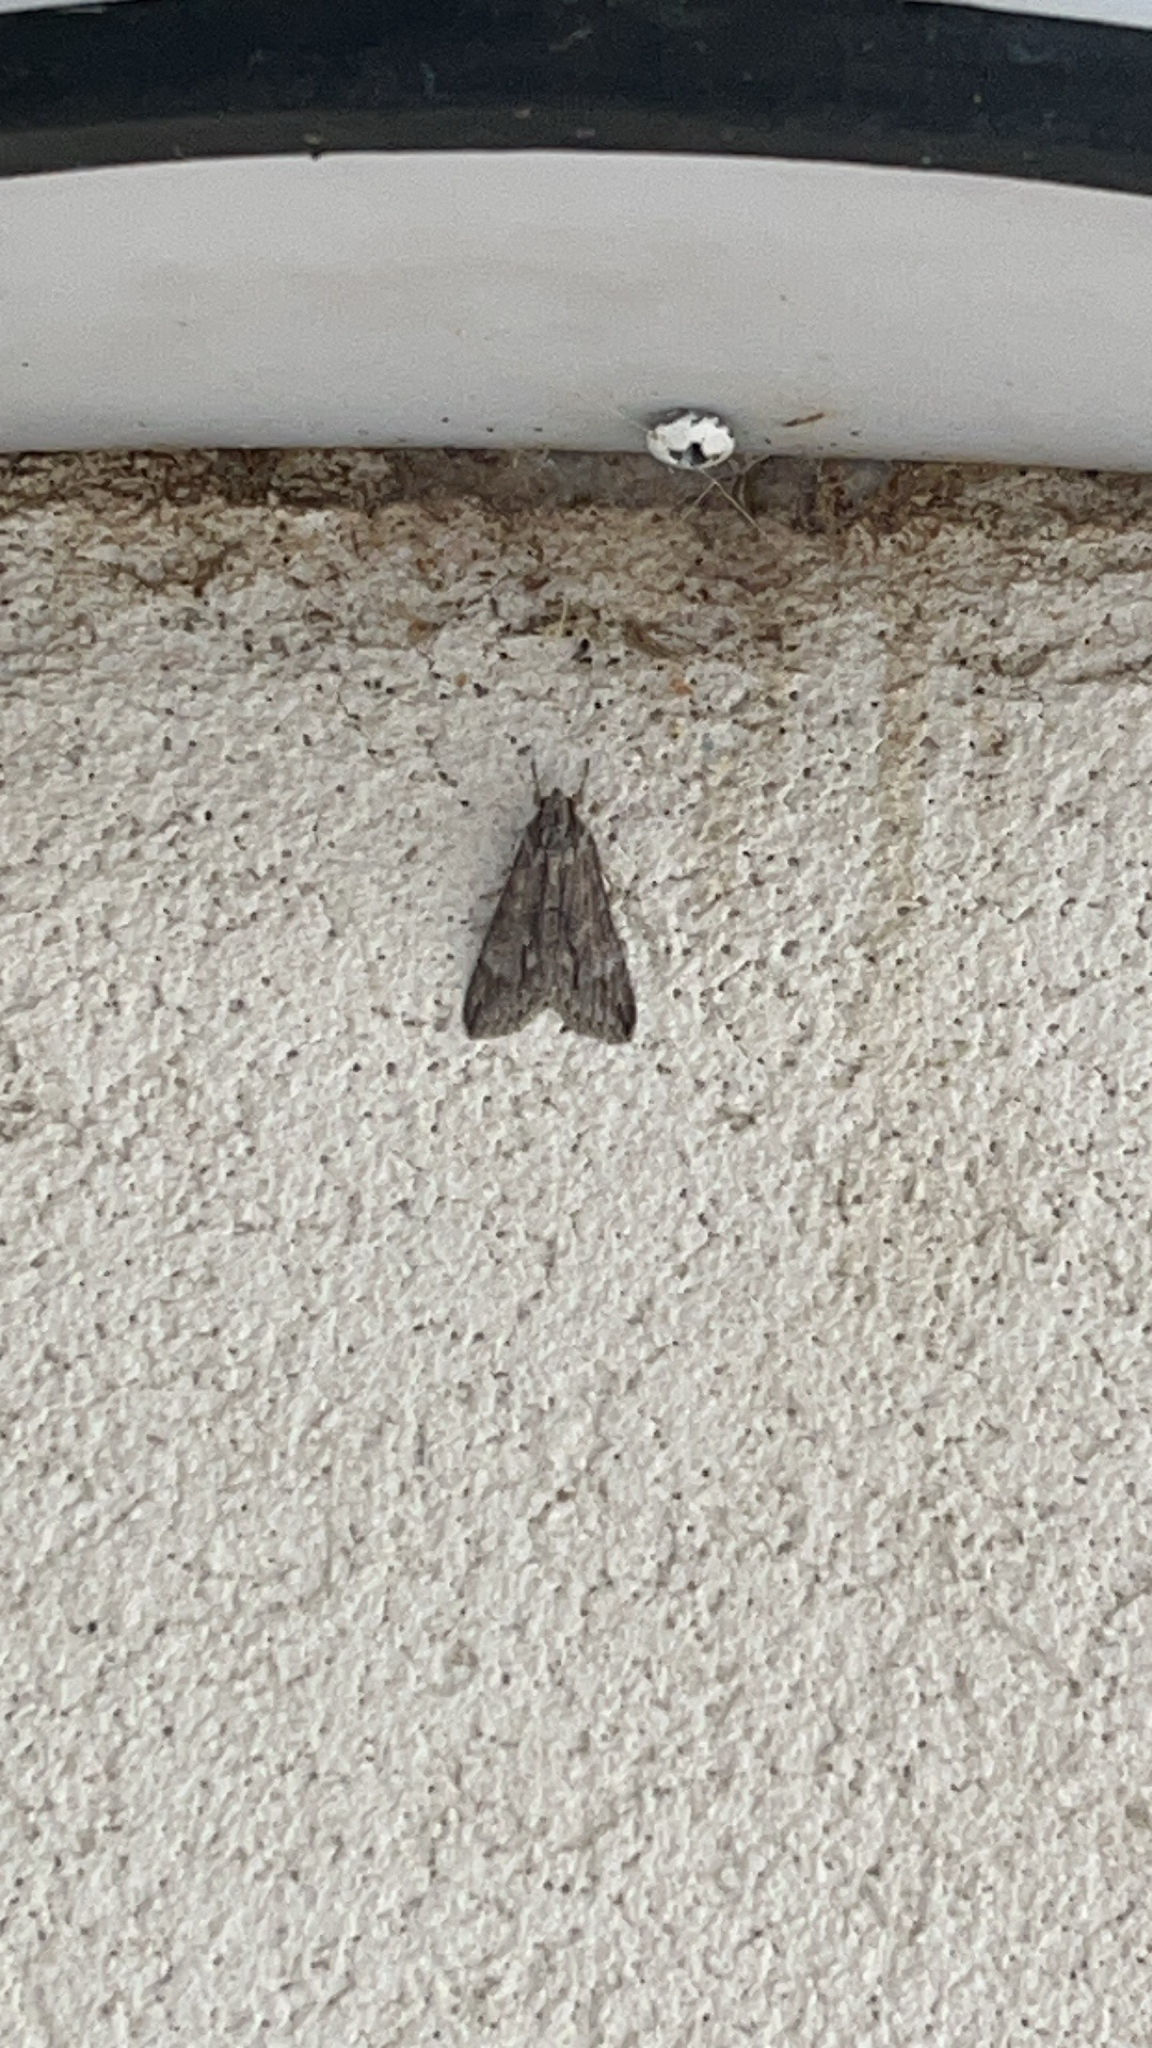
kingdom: Animalia
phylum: Arthropoda
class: Insecta
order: Lepidoptera
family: Erebidae
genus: Melipotis
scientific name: Melipotis acontioides
